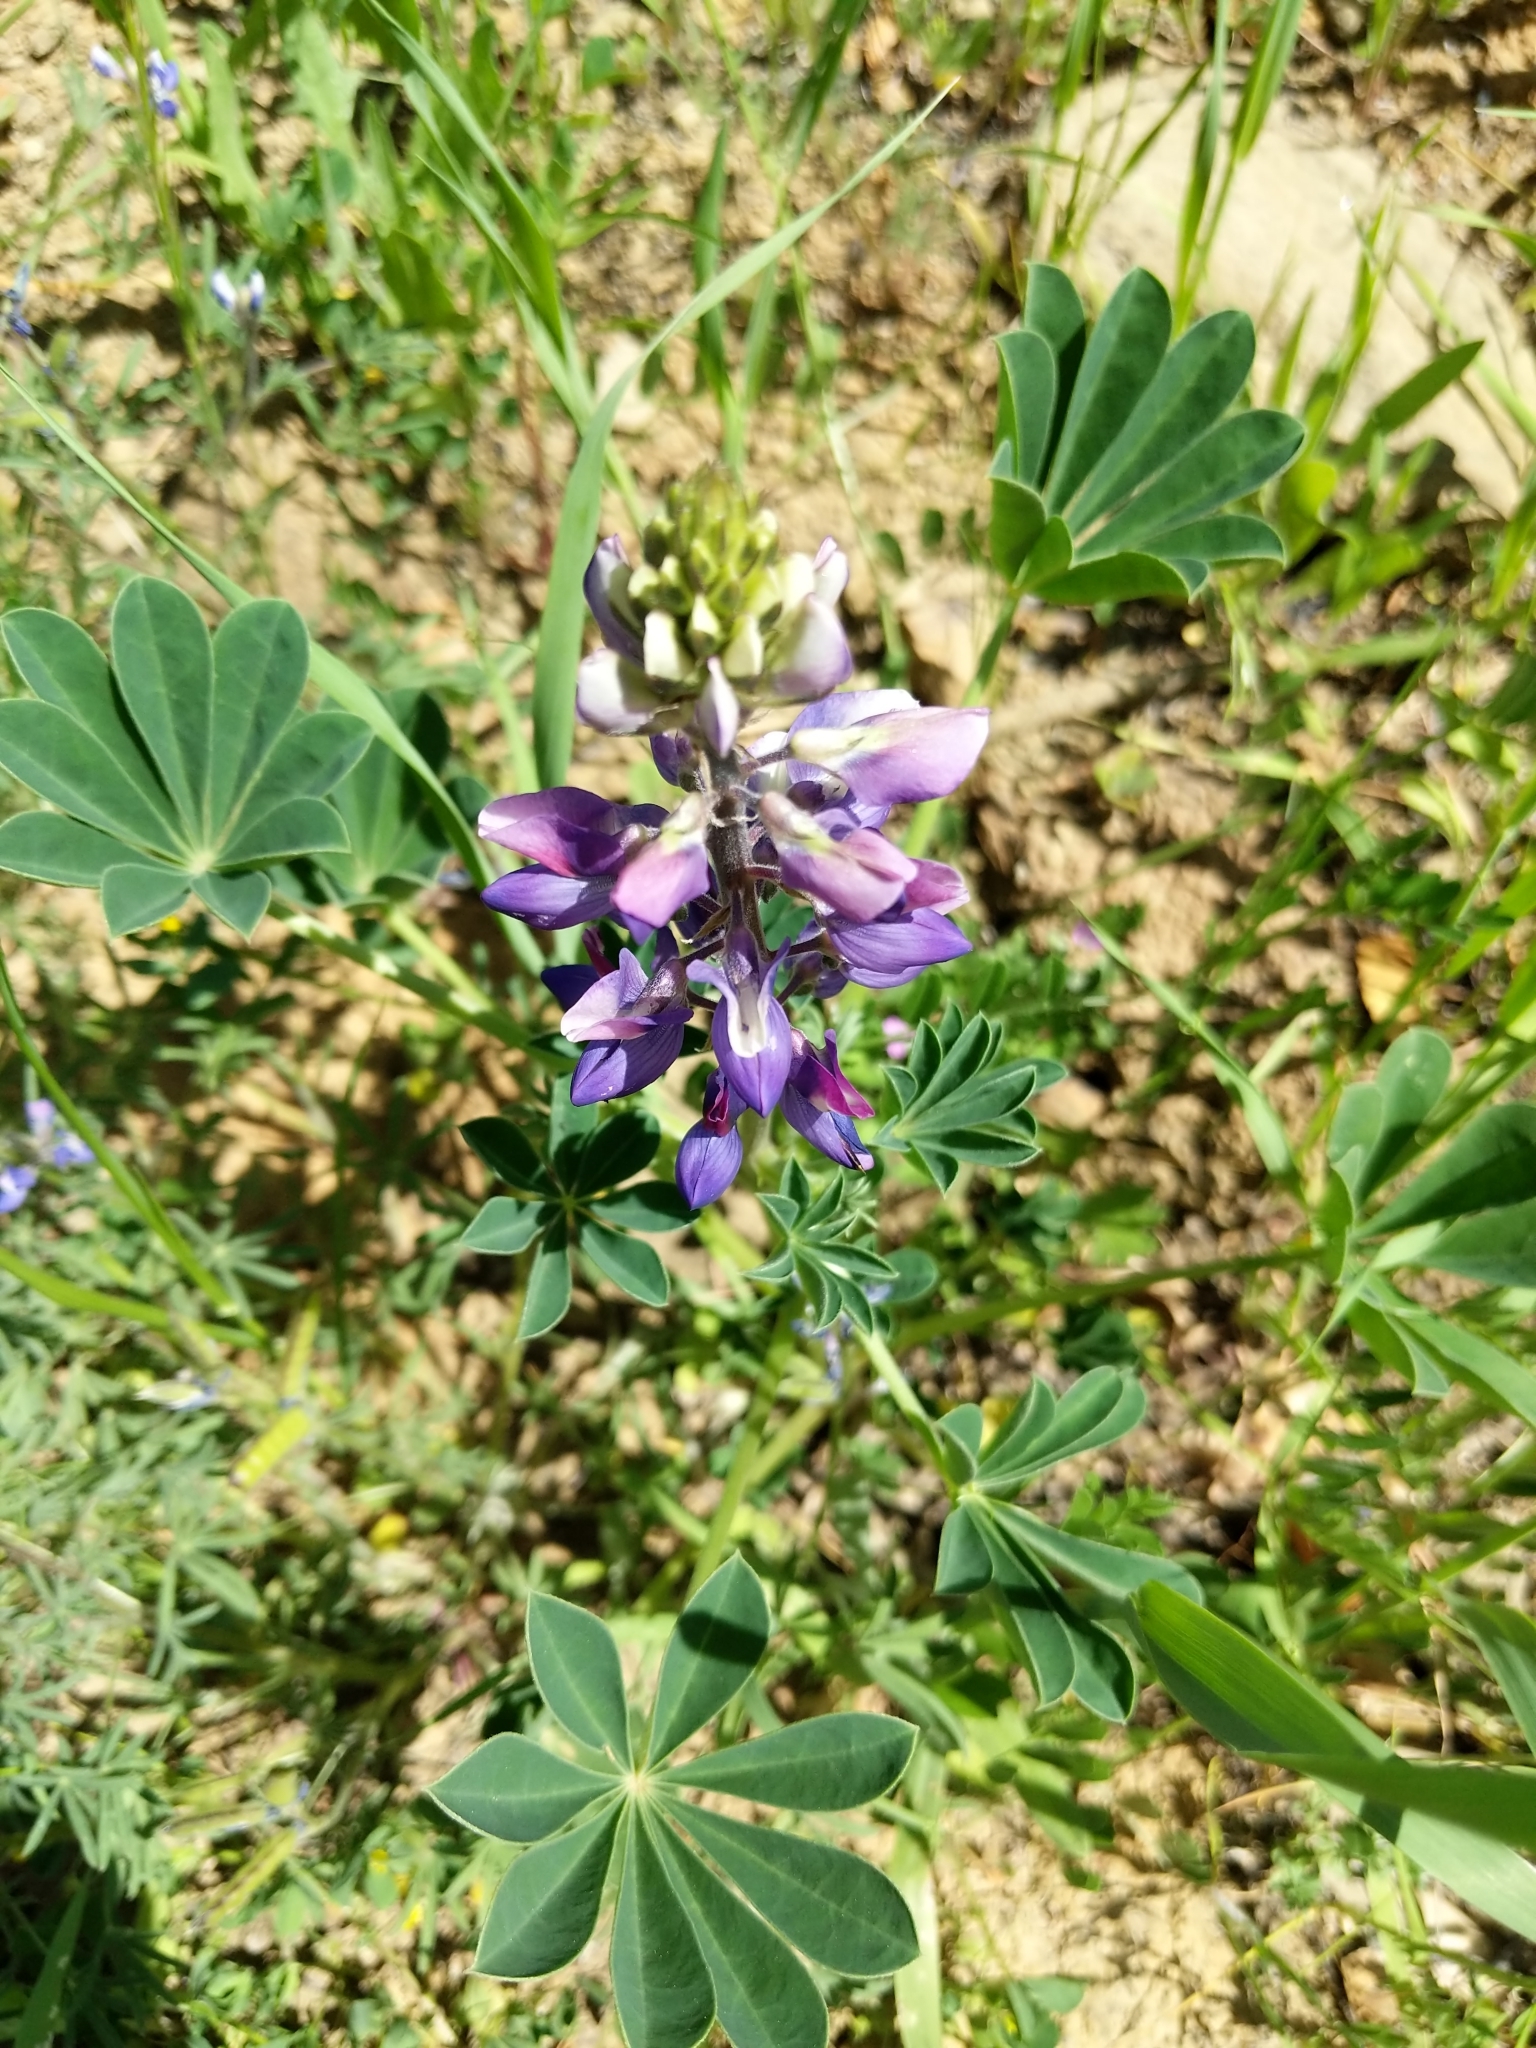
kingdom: Plantae
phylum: Tracheophyta
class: Magnoliopsida
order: Fabales
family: Fabaceae
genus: Lupinus
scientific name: Lupinus succulentus
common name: Arroyo lupine
